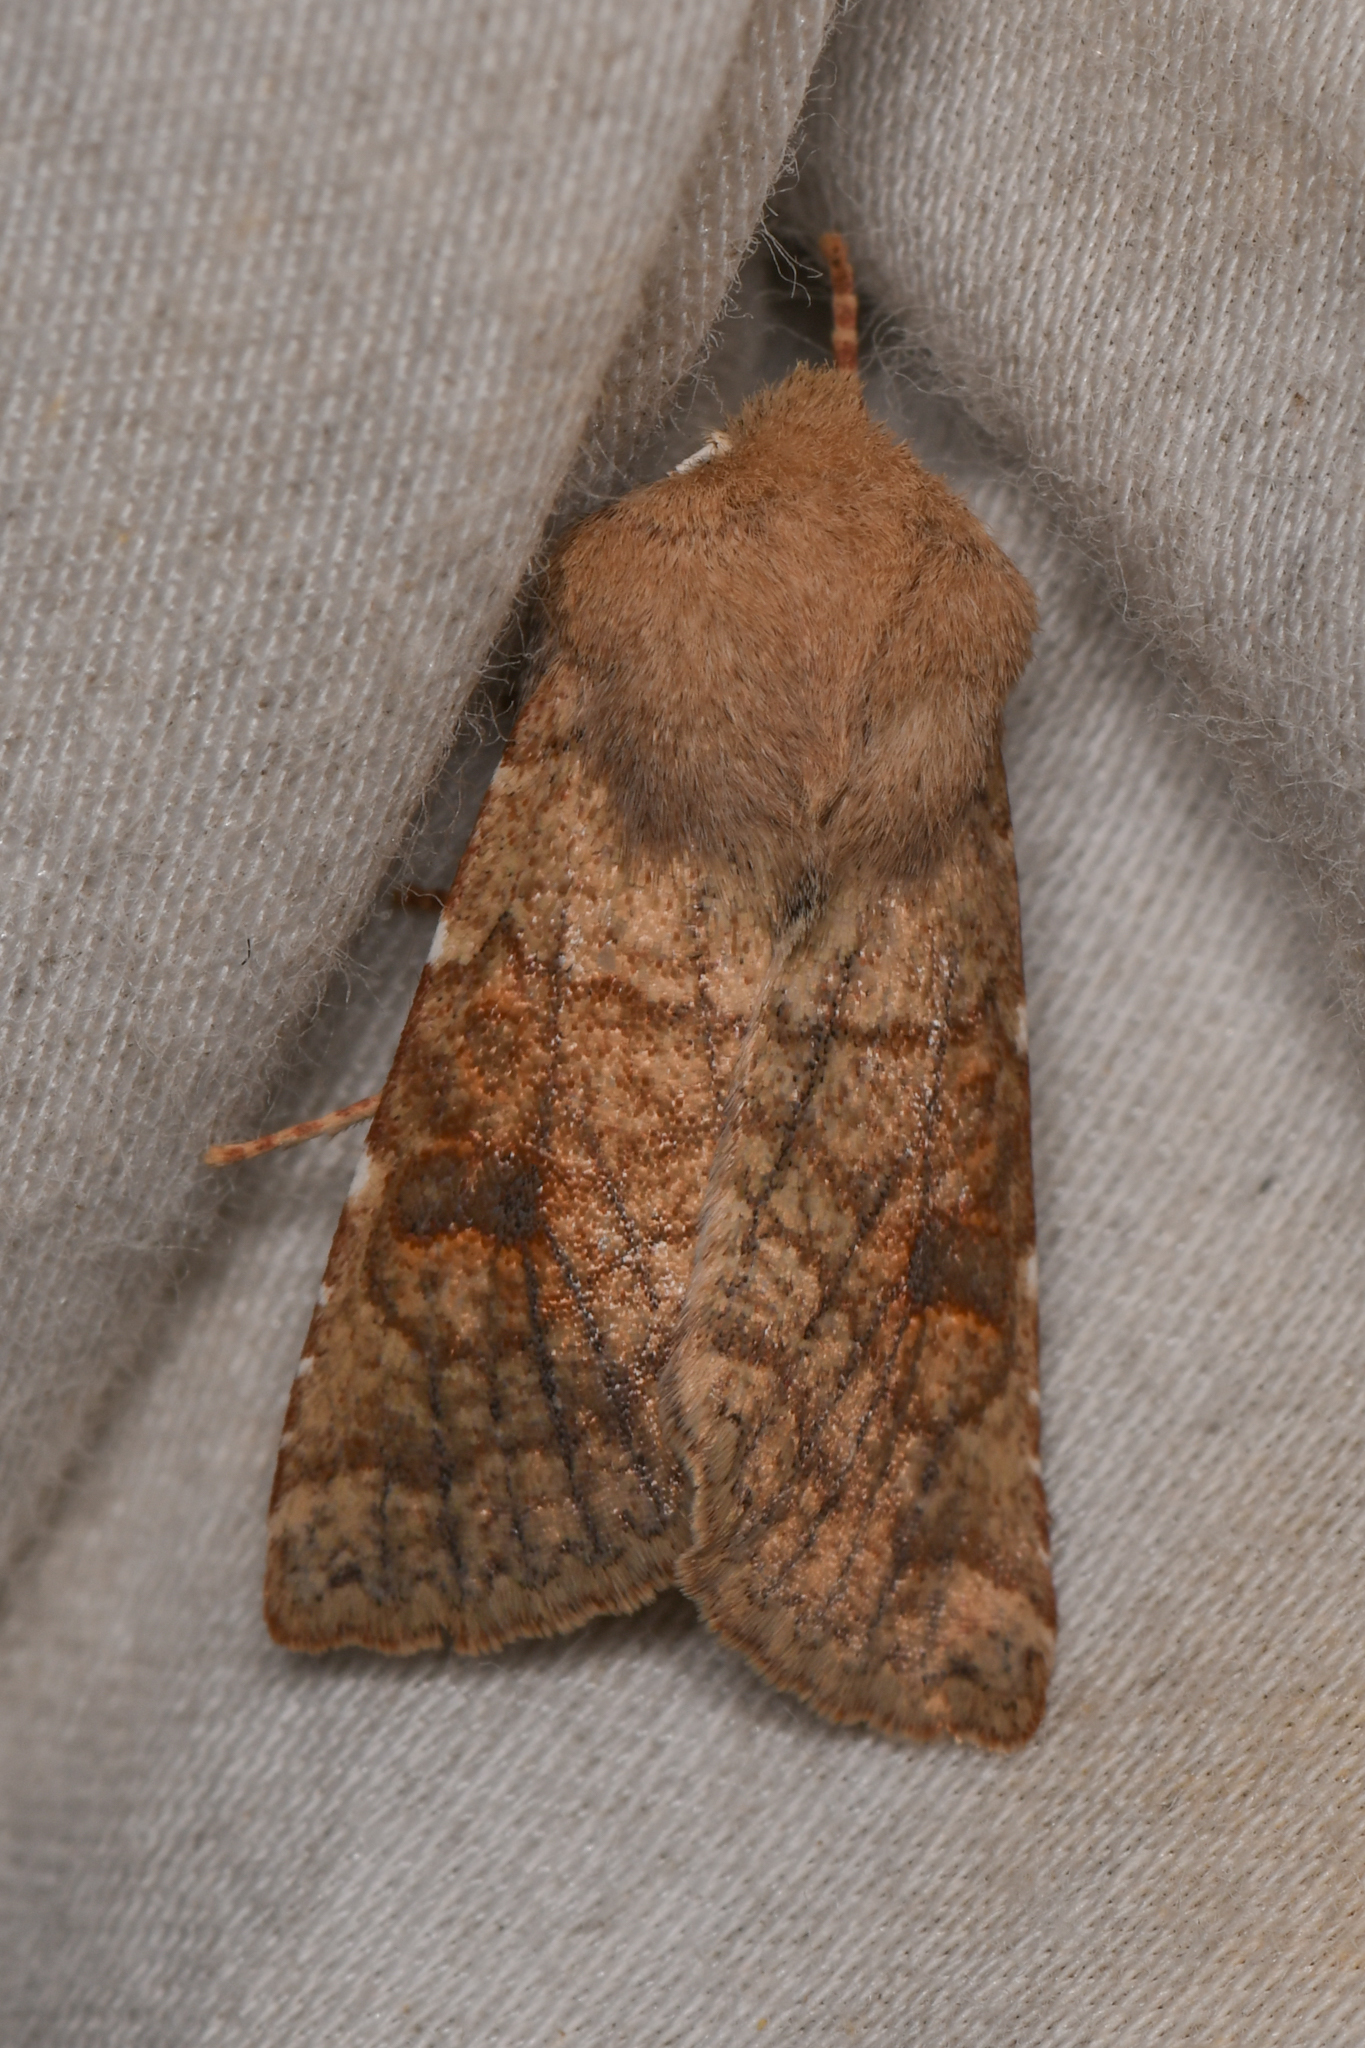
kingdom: Animalia
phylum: Arthropoda
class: Insecta
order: Lepidoptera
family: Noctuidae
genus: Orthosia
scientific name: Orthosia ferrigera
